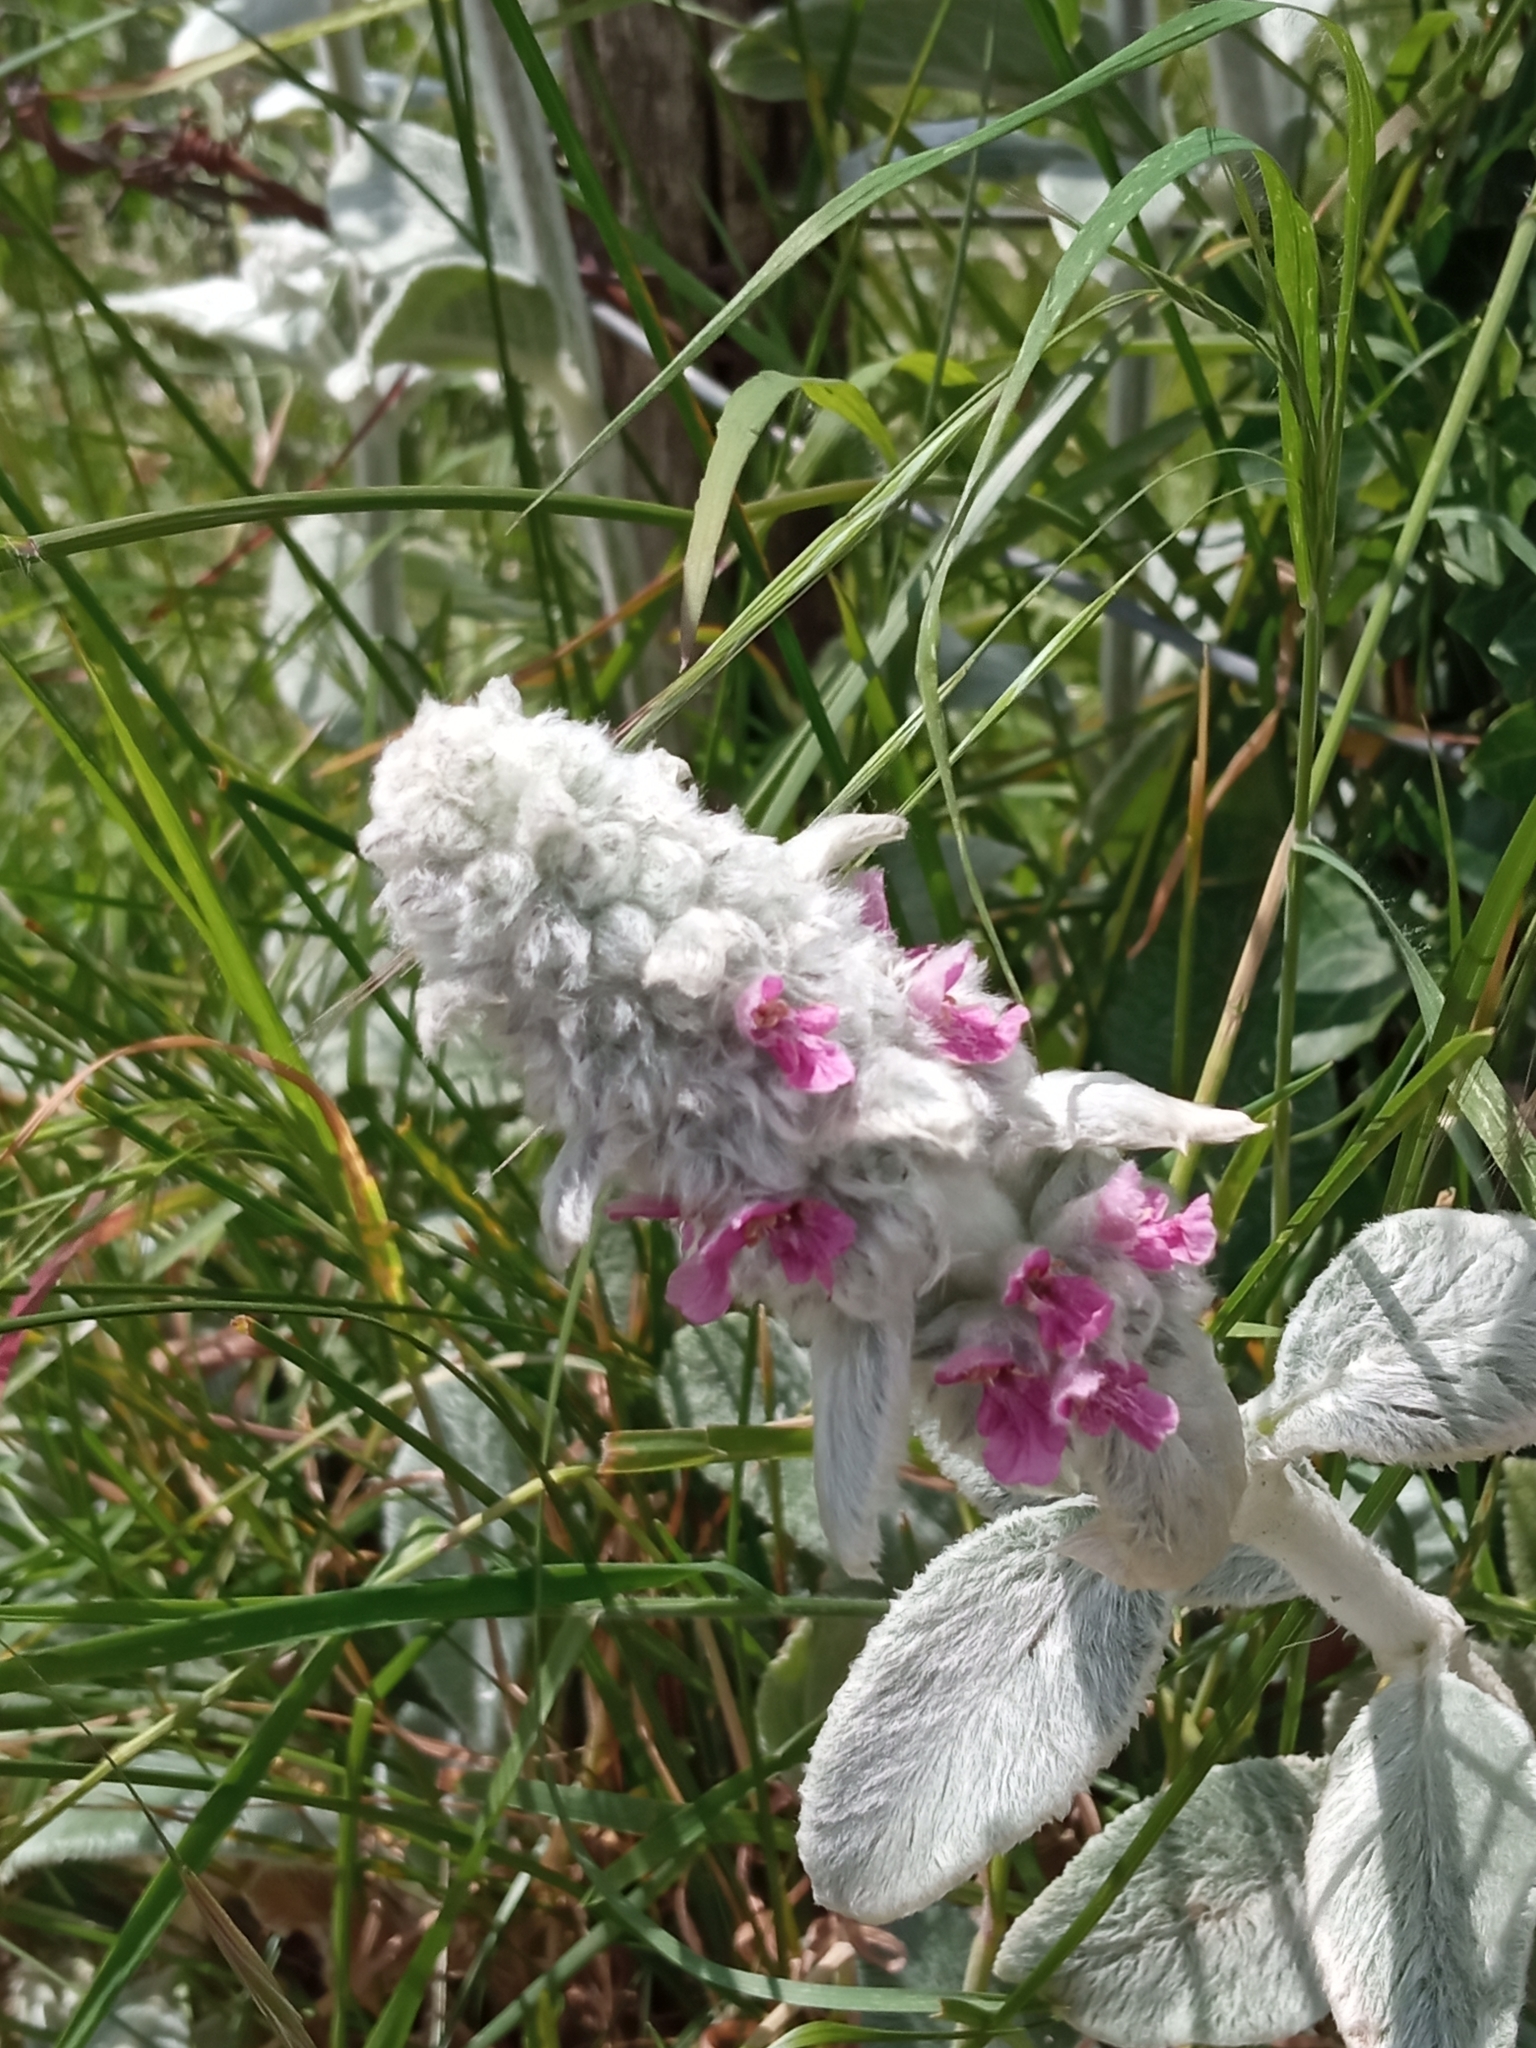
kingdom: Plantae
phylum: Tracheophyta
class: Magnoliopsida
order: Lamiales
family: Lamiaceae
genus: Stachys
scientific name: Stachys byzantina
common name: Lamb's-ear
